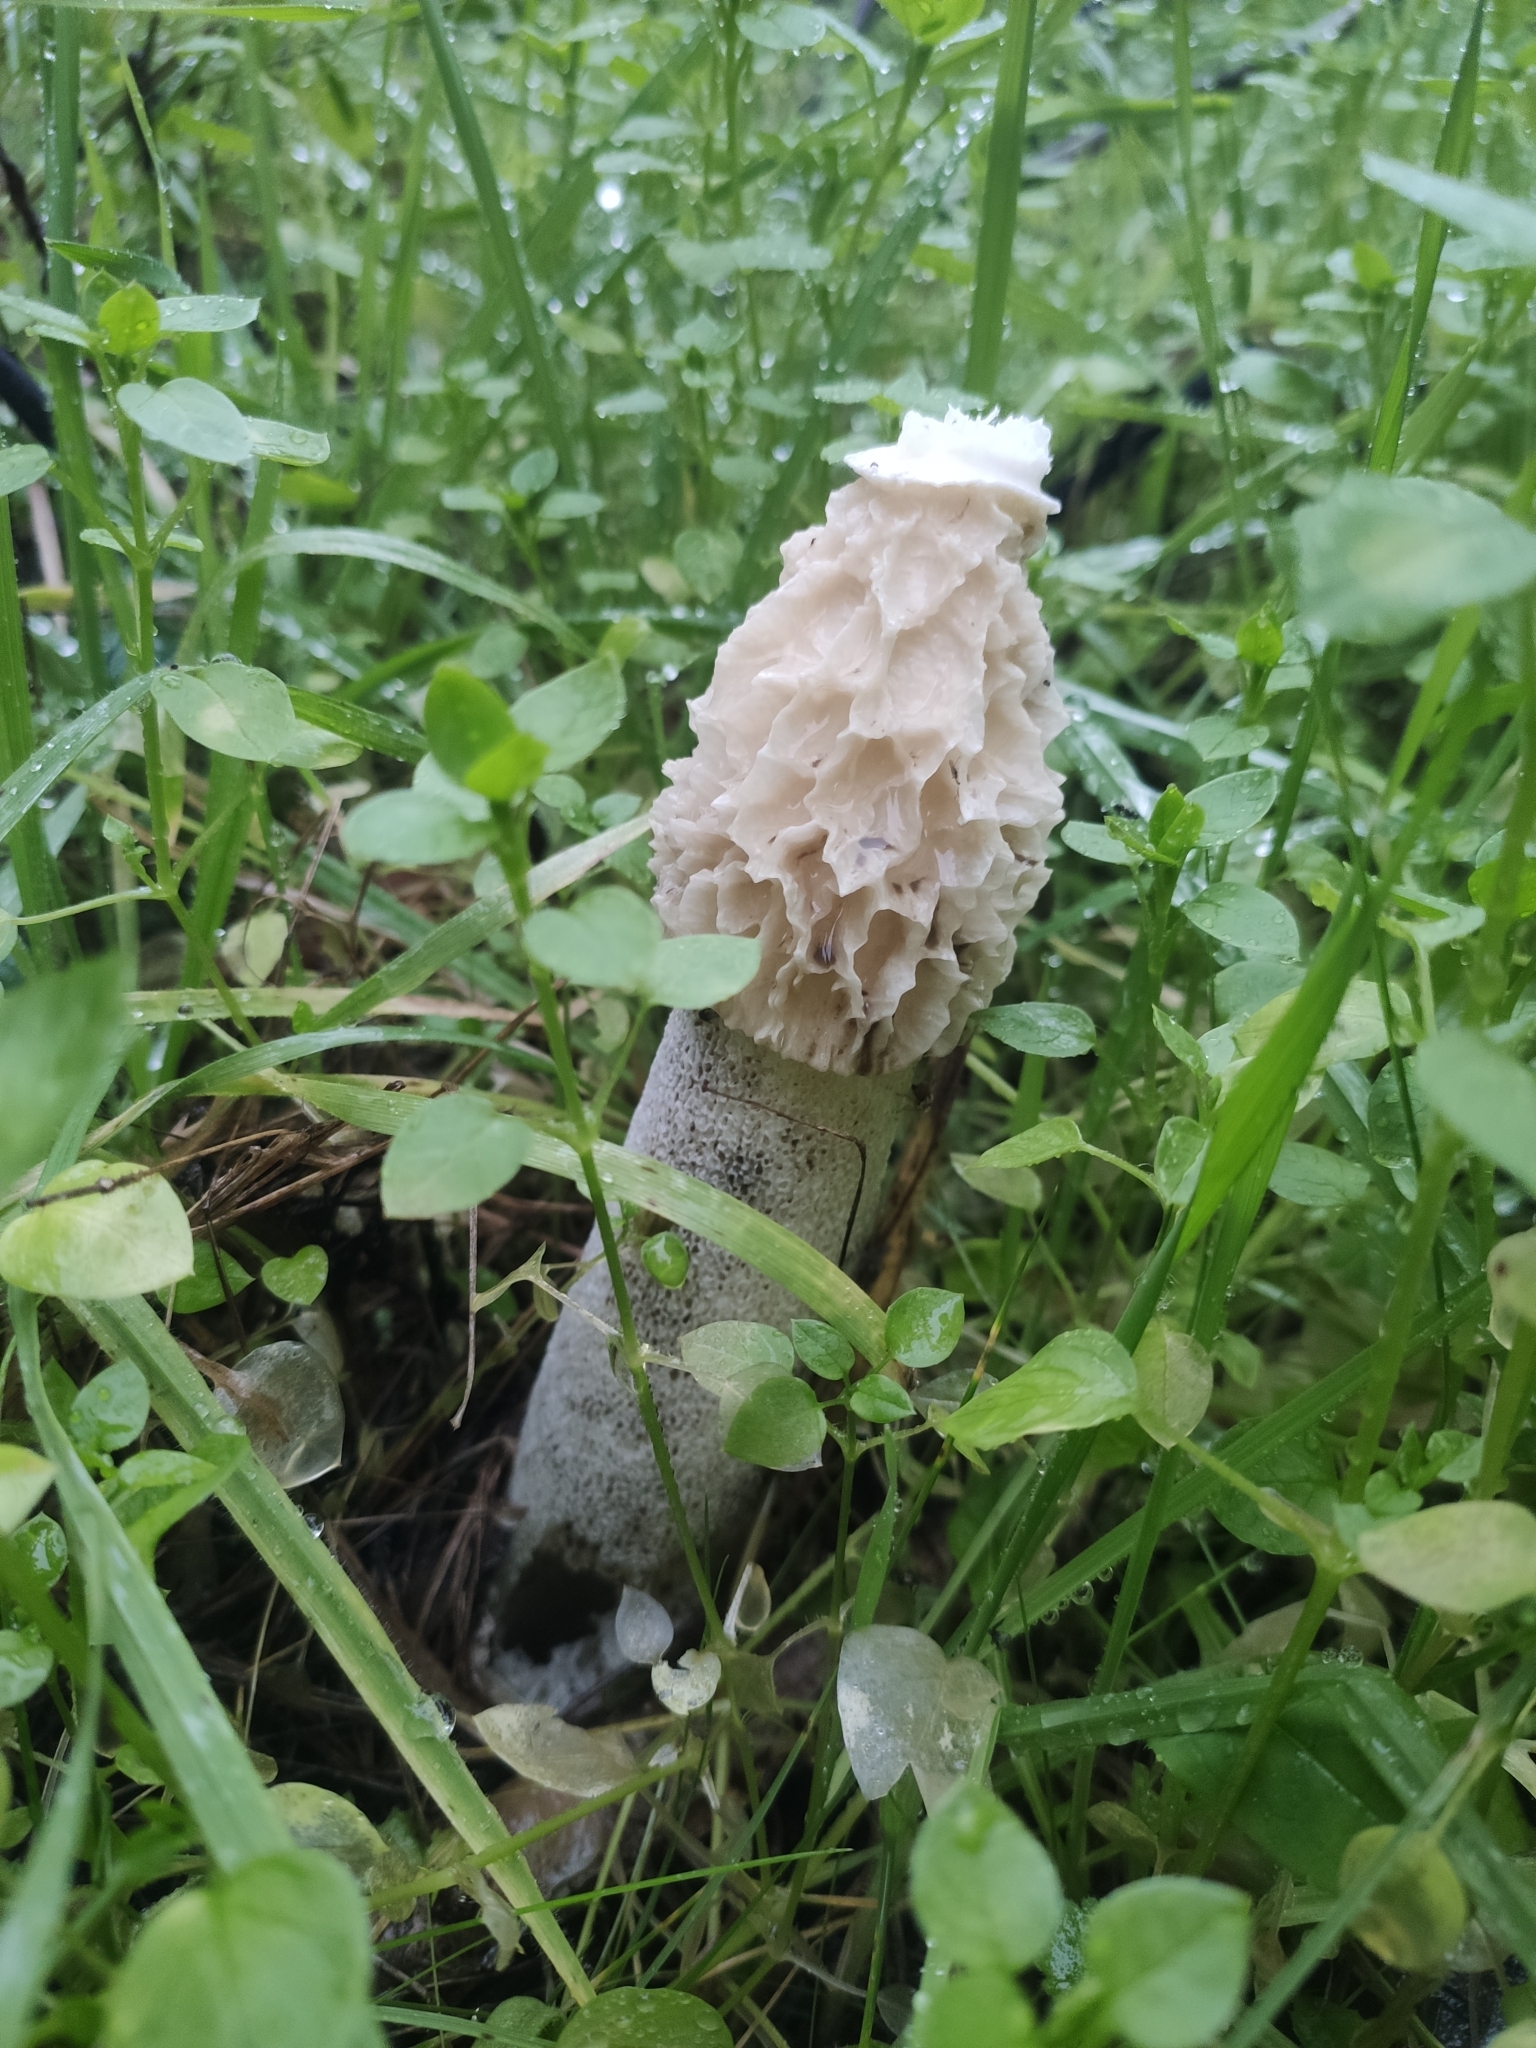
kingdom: Fungi
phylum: Basidiomycota
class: Agaricomycetes
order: Phallales
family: Phallaceae
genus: Phallus
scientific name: Phallus impudicus
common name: Common stinkhorn
